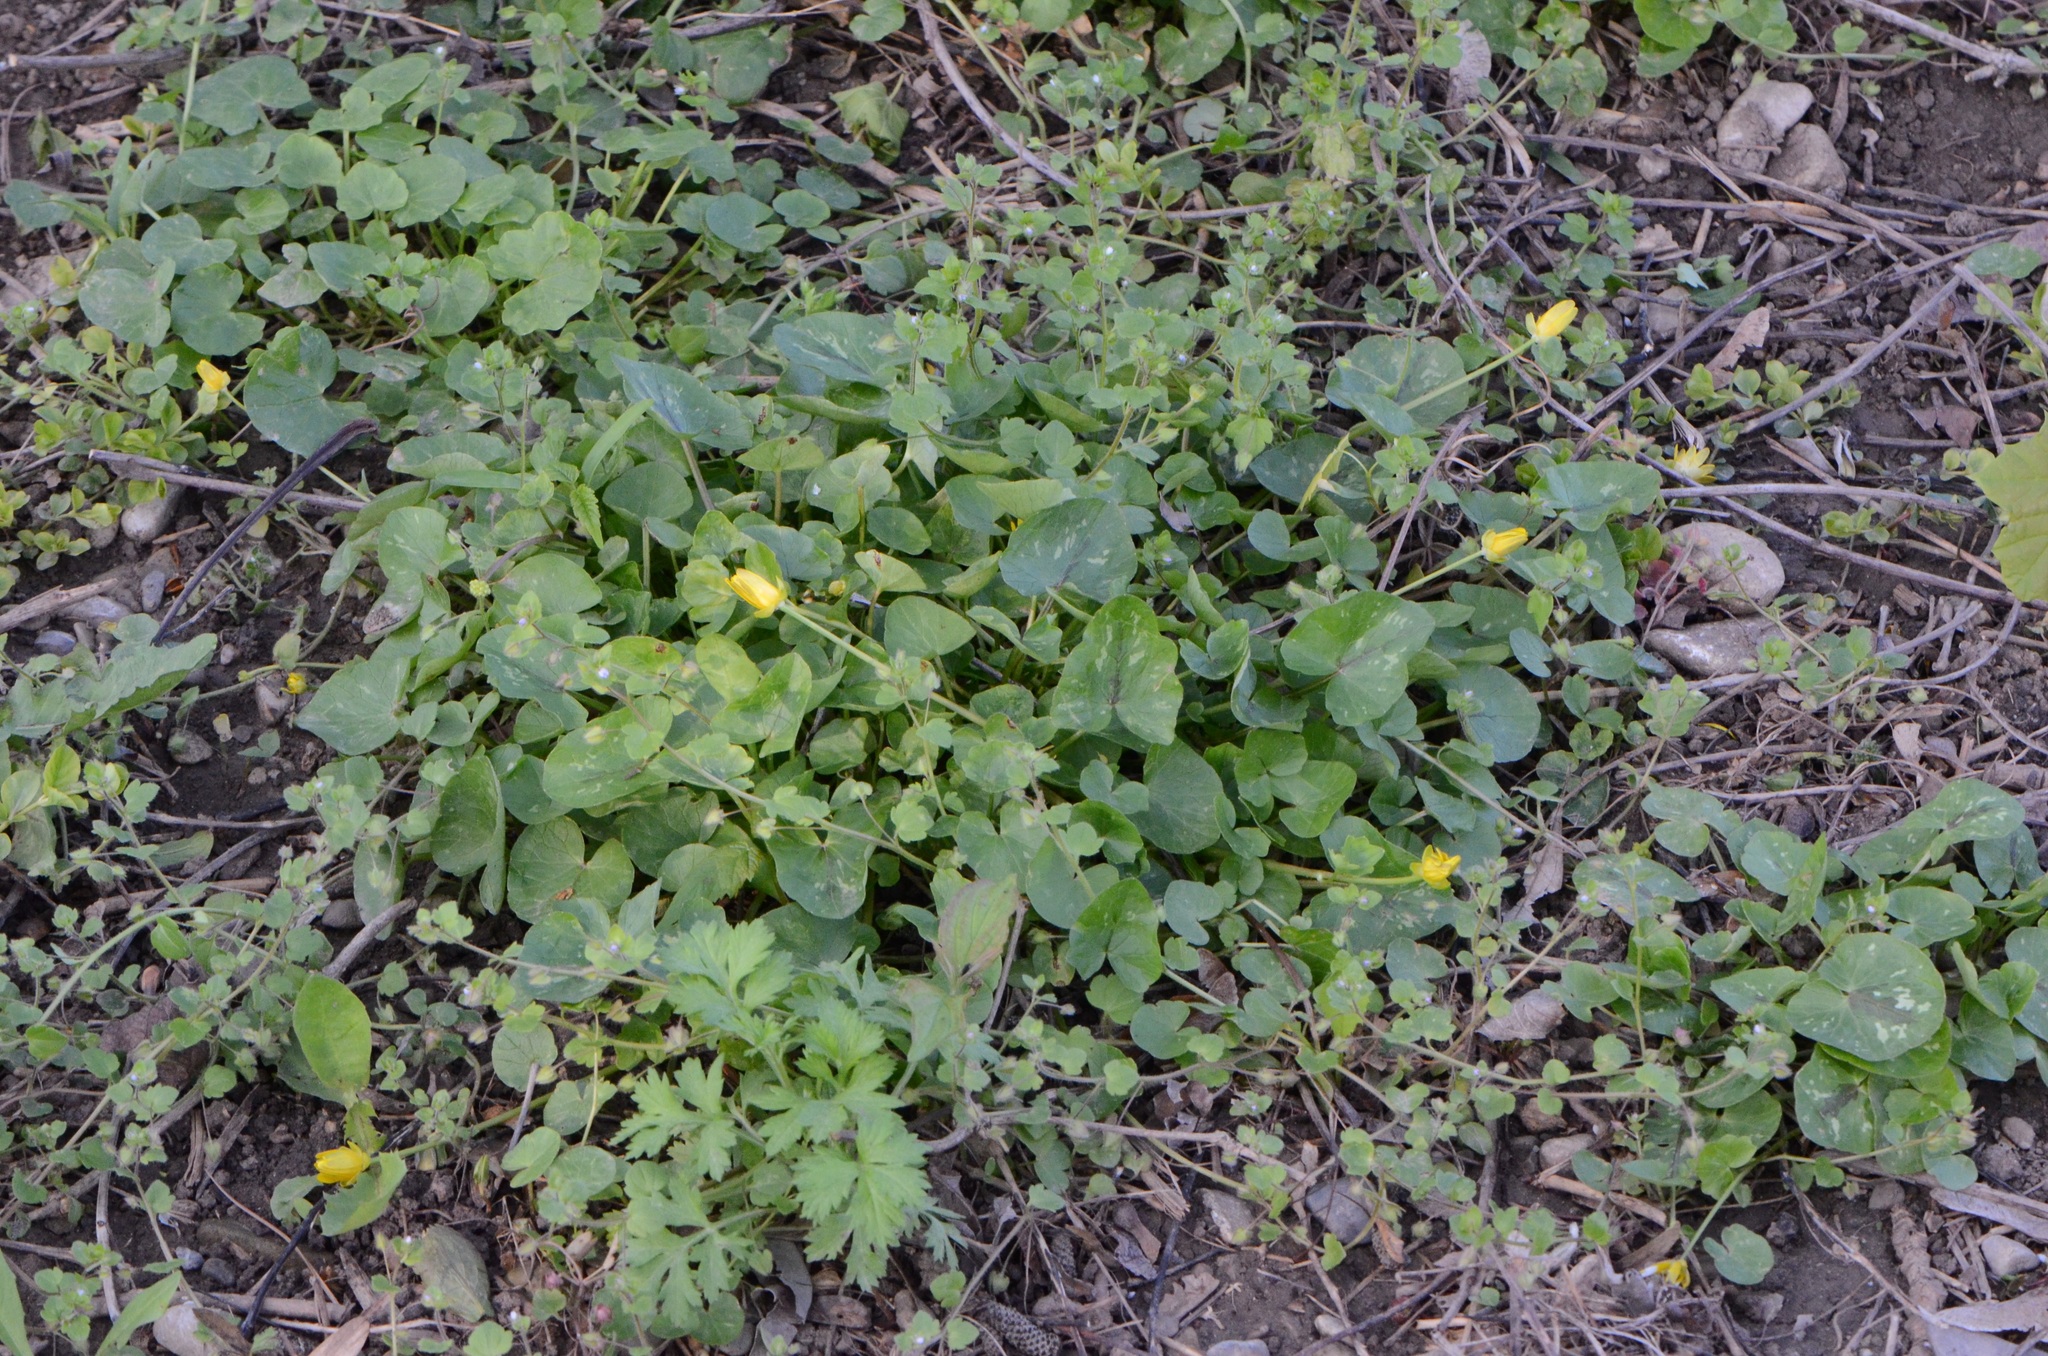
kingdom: Plantae
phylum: Tracheophyta
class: Magnoliopsida
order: Ranunculales
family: Ranunculaceae
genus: Ficaria
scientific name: Ficaria verna
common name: Lesser celandine
